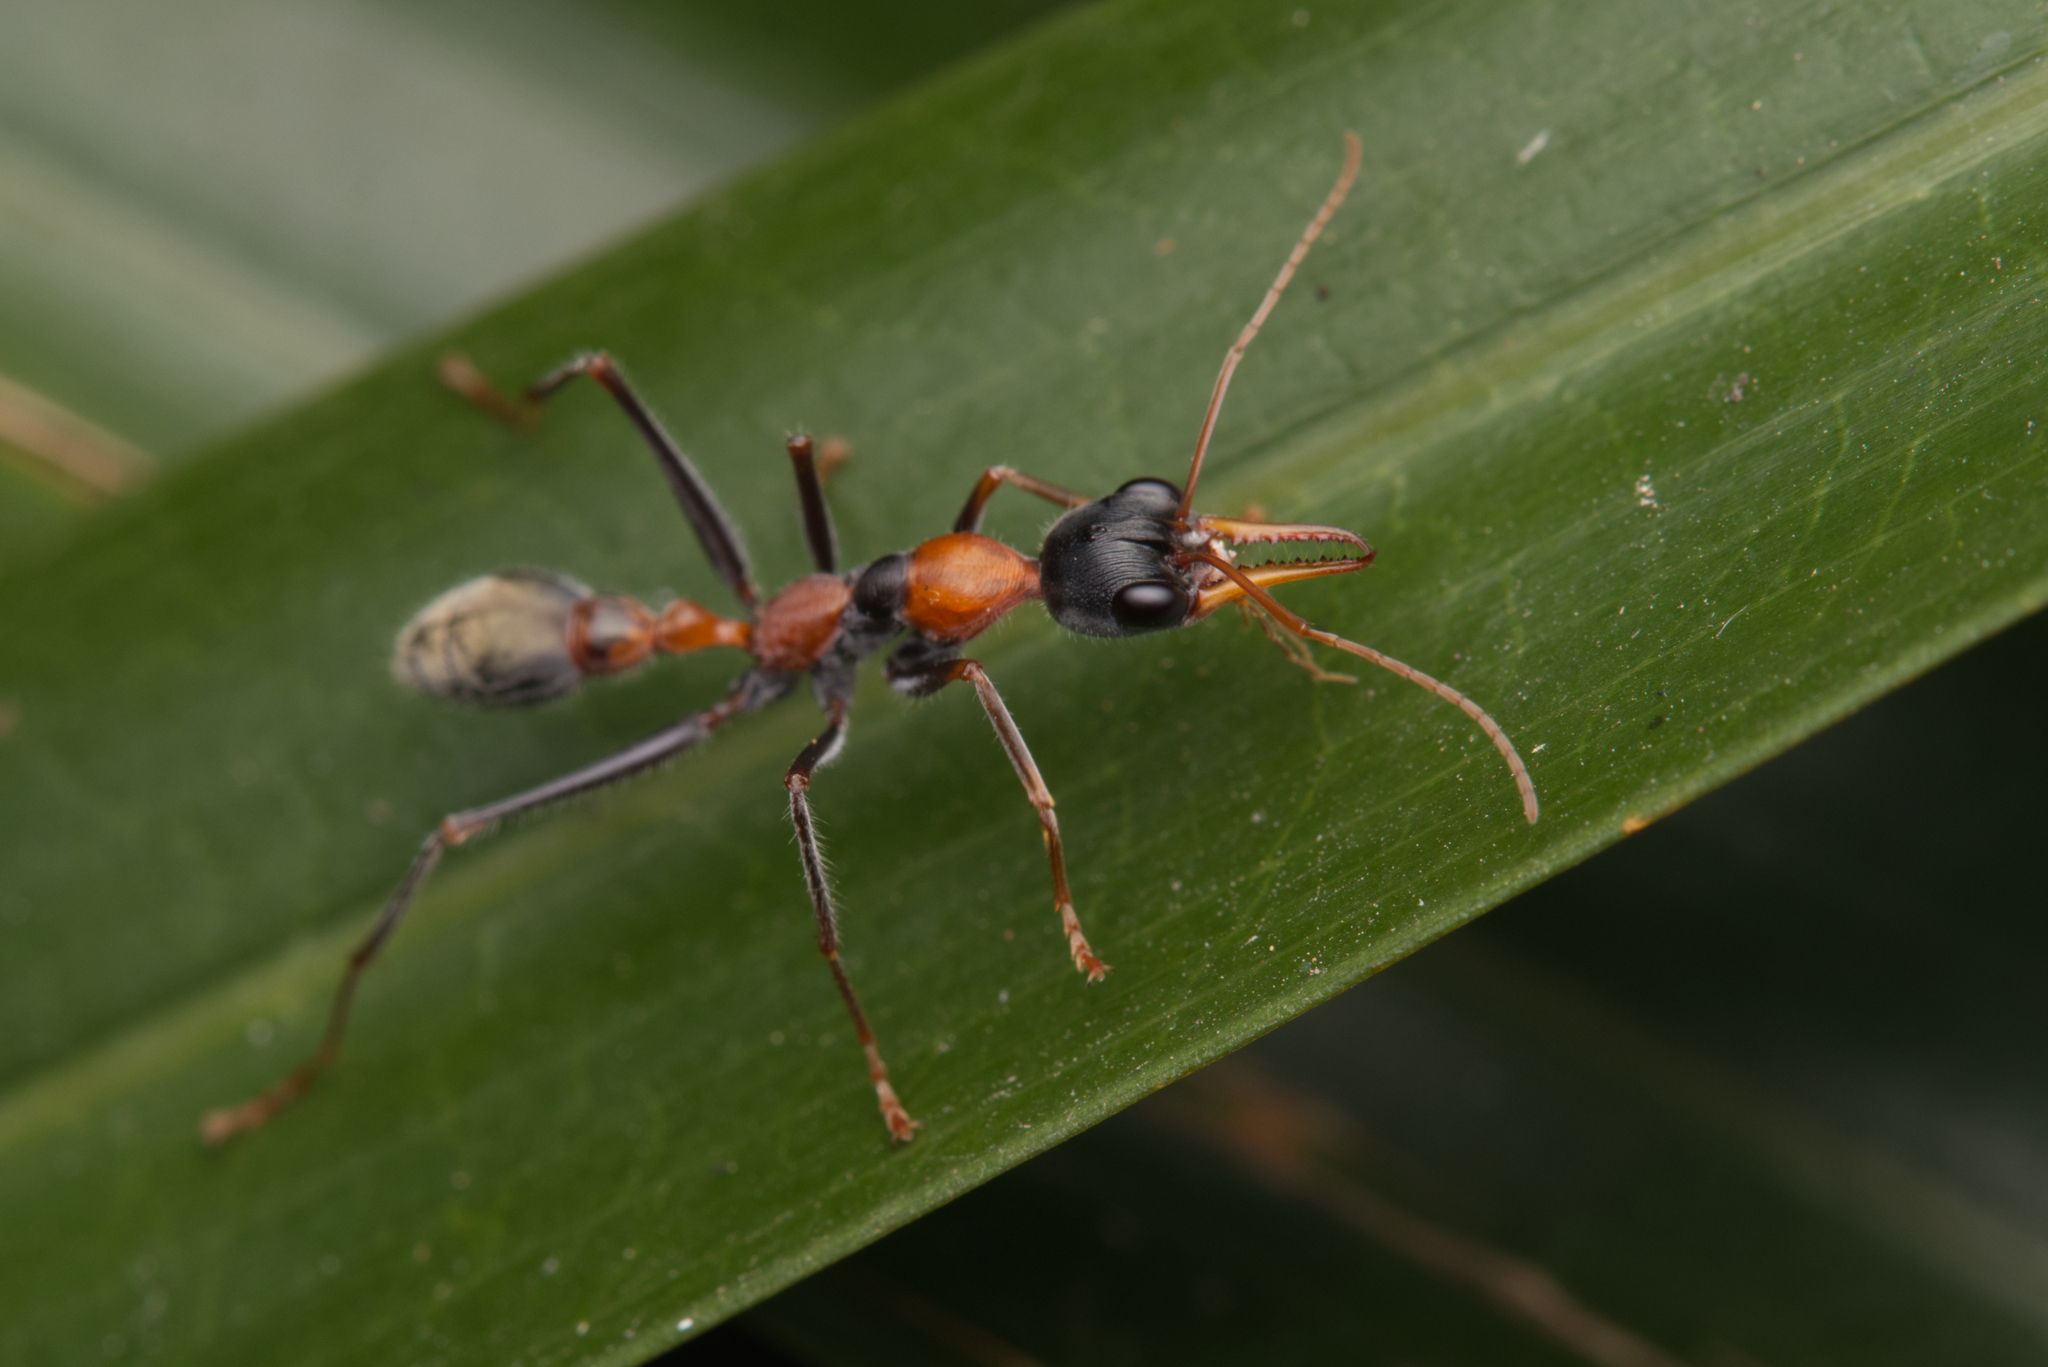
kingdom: Animalia
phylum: Arthropoda
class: Insecta
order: Hymenoptera
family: Formicidae
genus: Myrmecia
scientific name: Myrmecia nigrocincta
